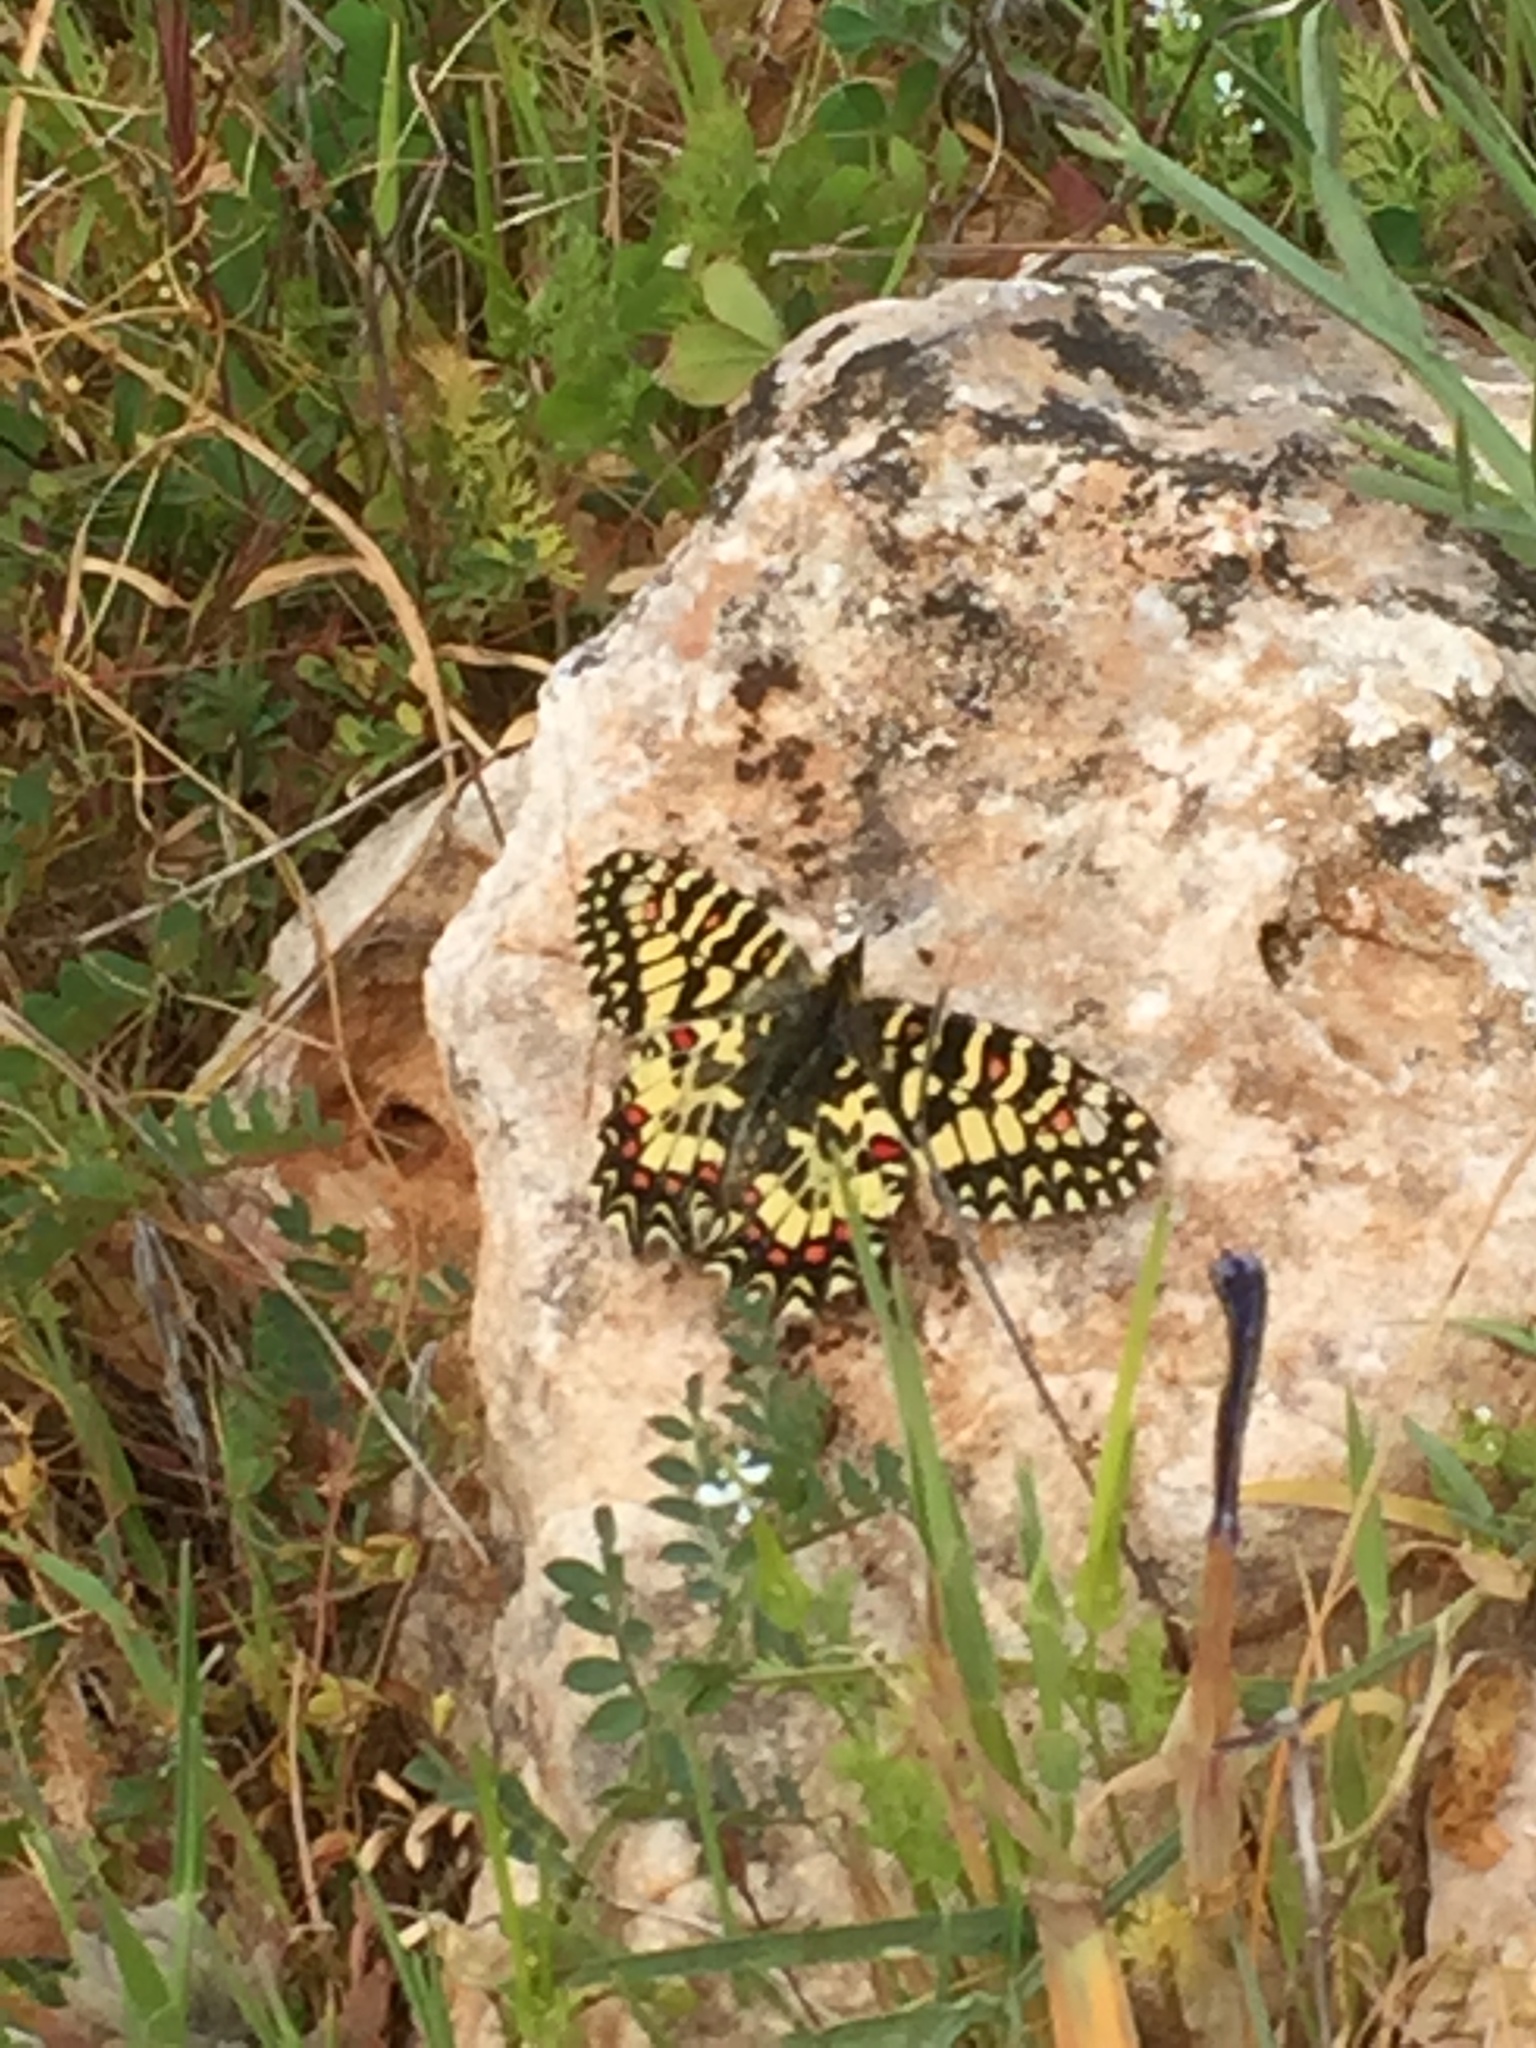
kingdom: Animalia
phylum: Arthropoda
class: Insecta
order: Lepidoptera
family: Papilionidae
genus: Zerynthia
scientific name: Zerynthia rumina
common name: Spanish festoon
